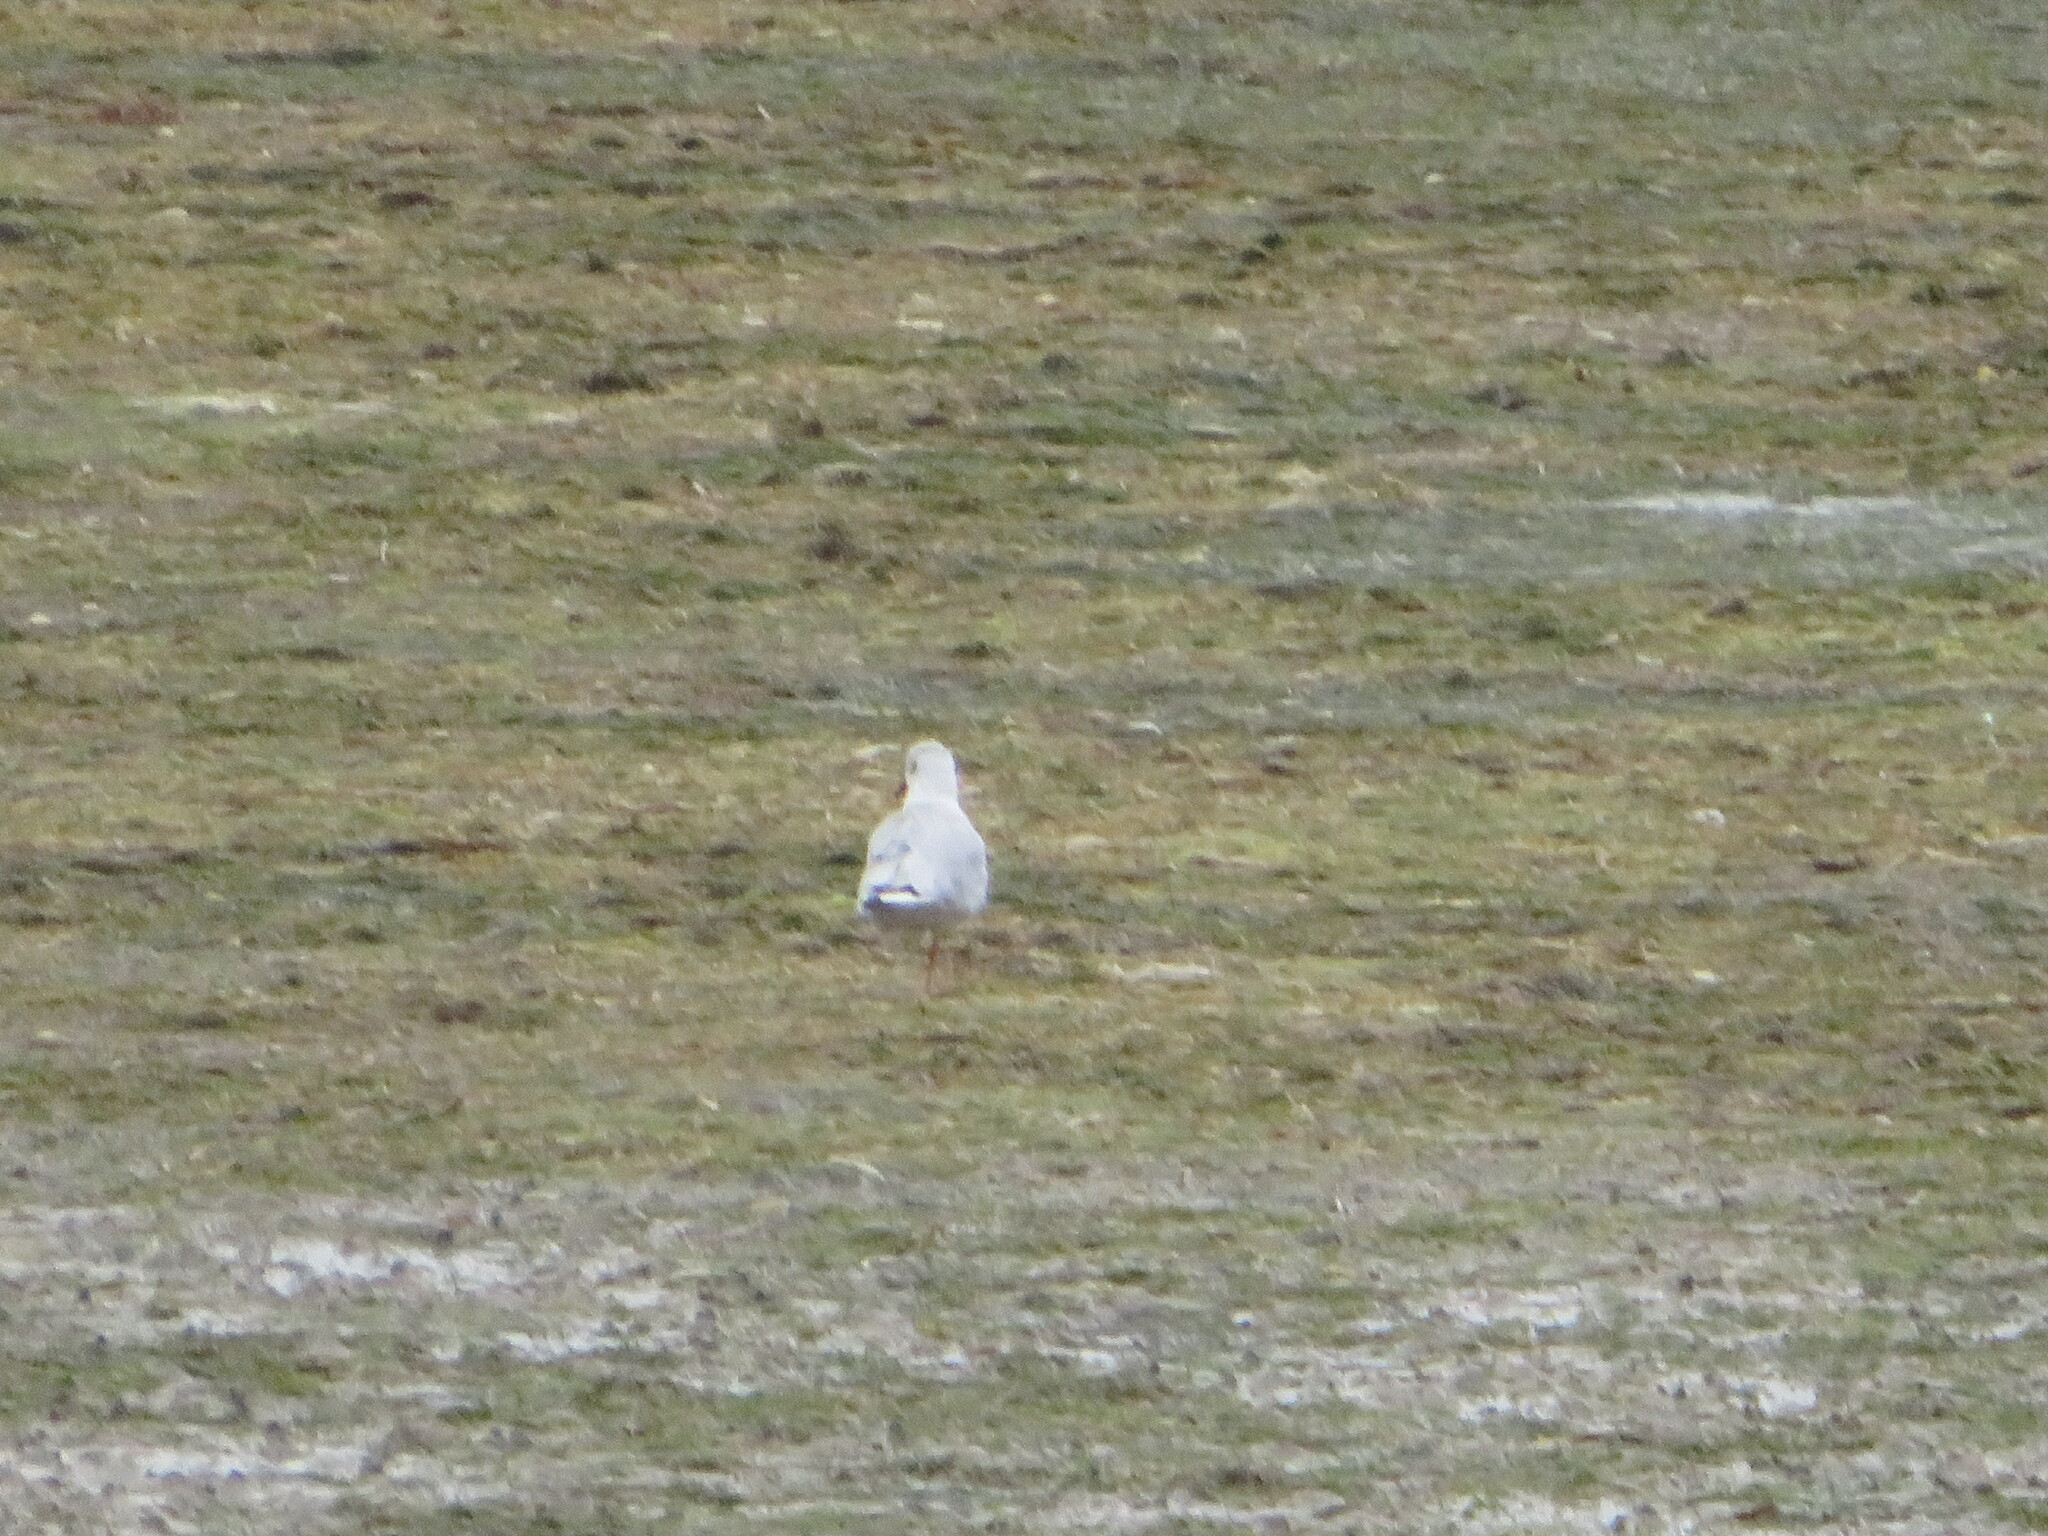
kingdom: Animalia
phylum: Chordata
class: Aves
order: Charadriiformes
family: Laridae
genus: Chroicocephalus
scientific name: Chroicocephalus ridibundus
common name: Black-headed gull
